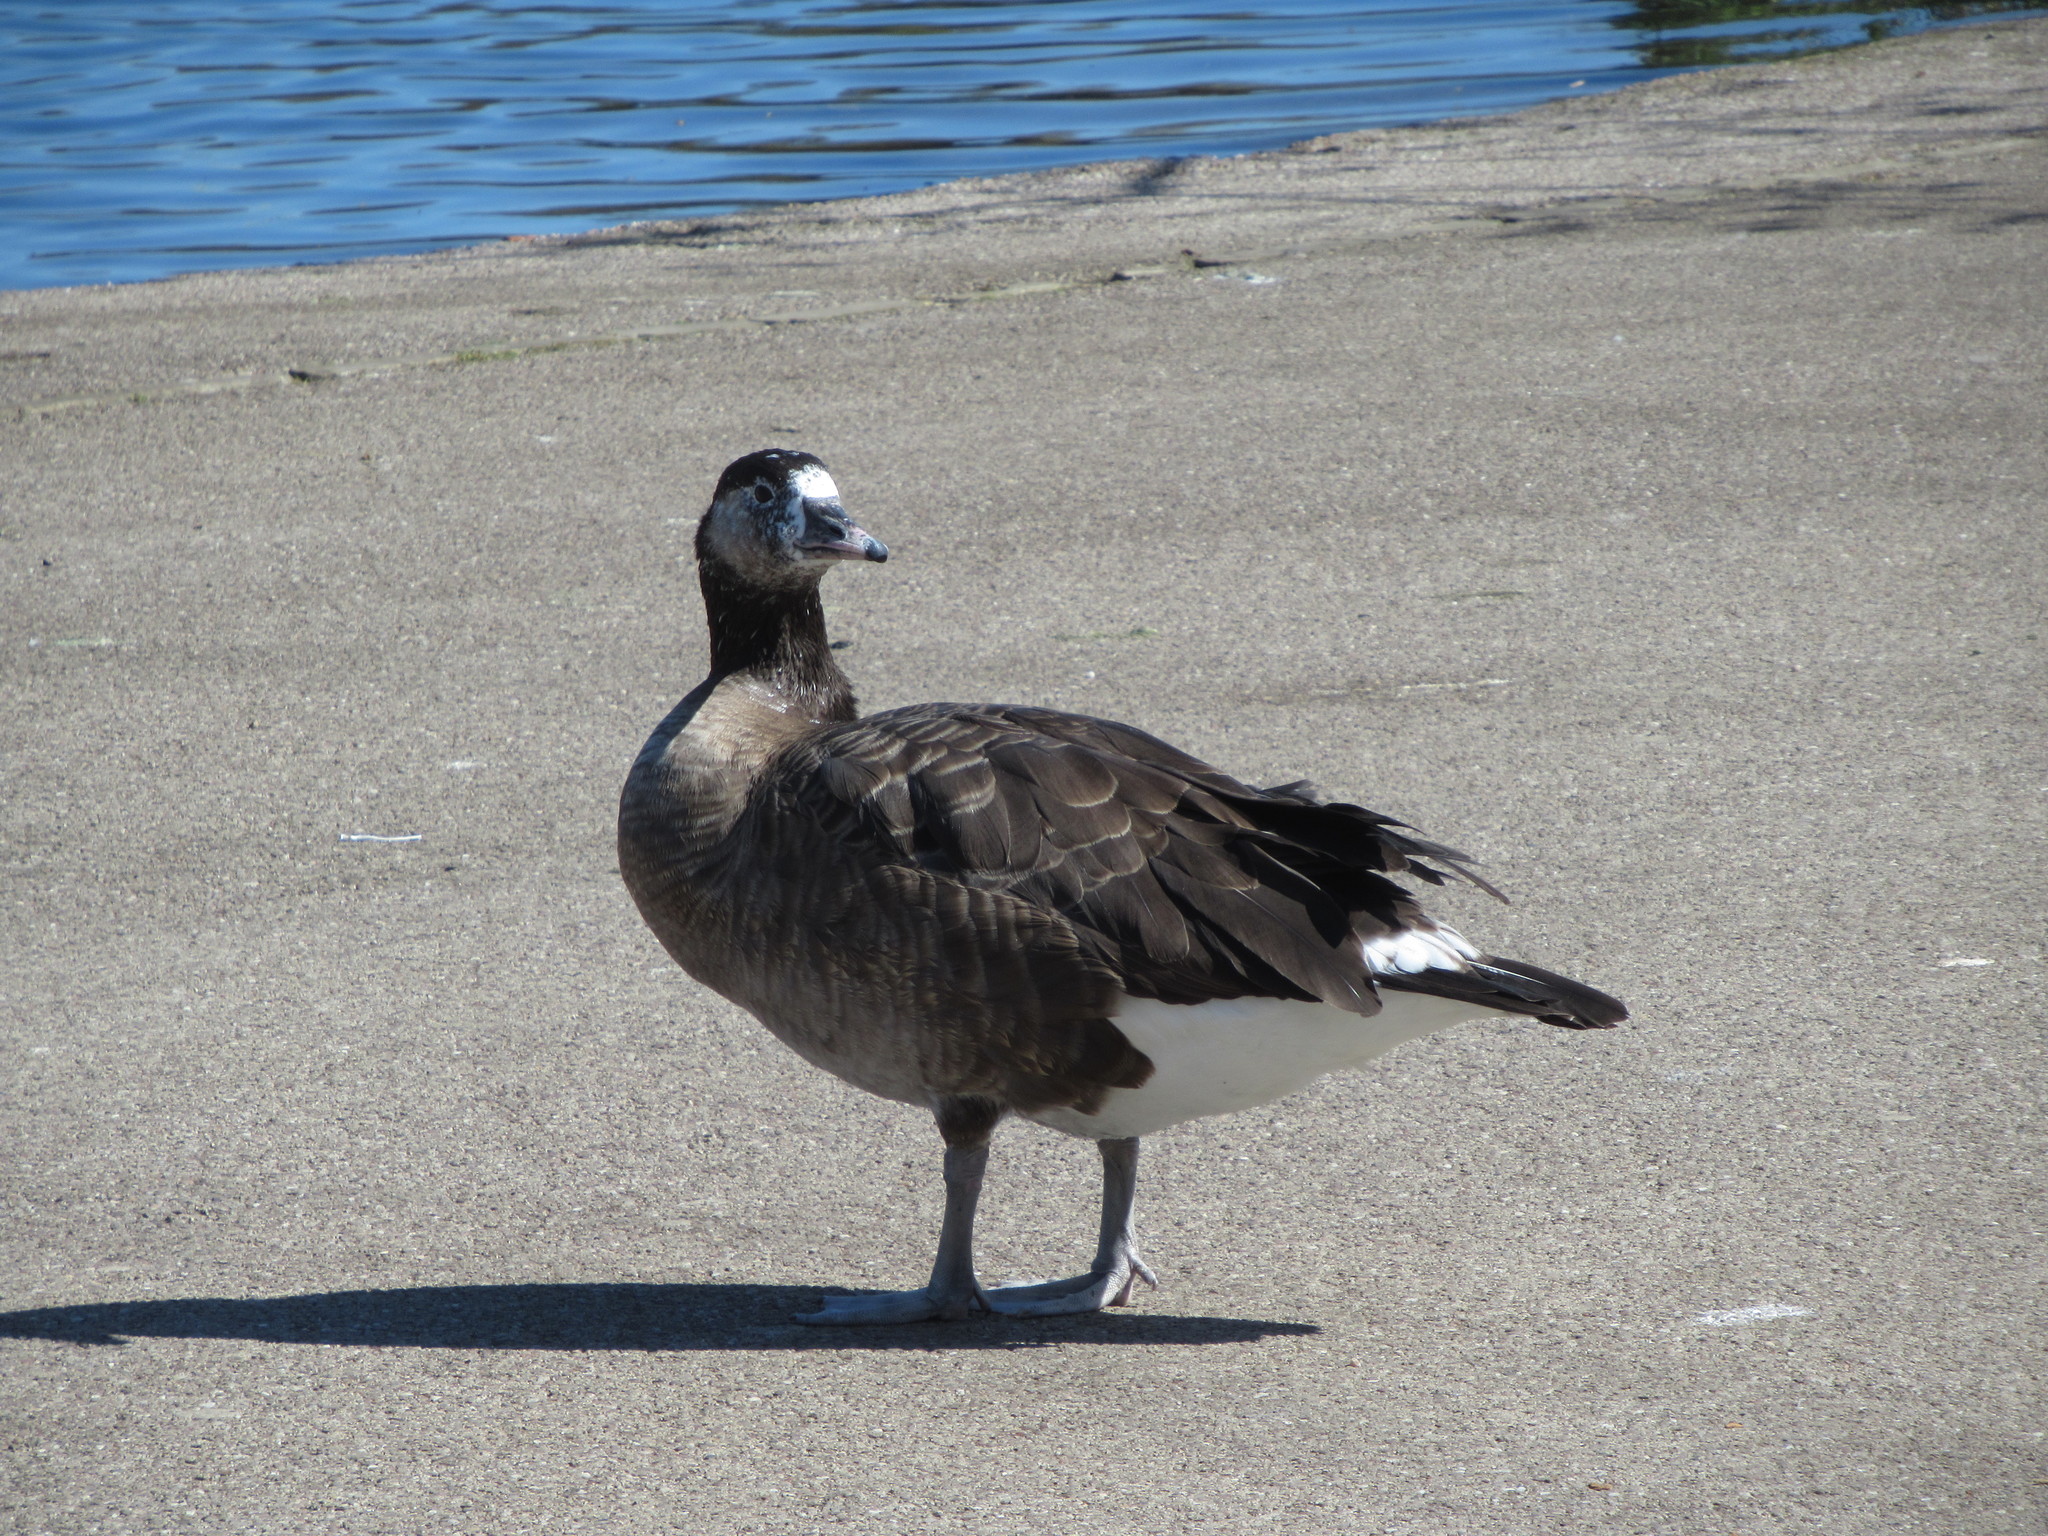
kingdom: Animalia
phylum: Chordata
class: Aves
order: Anseriformes
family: Anatidae
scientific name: Anatidae
